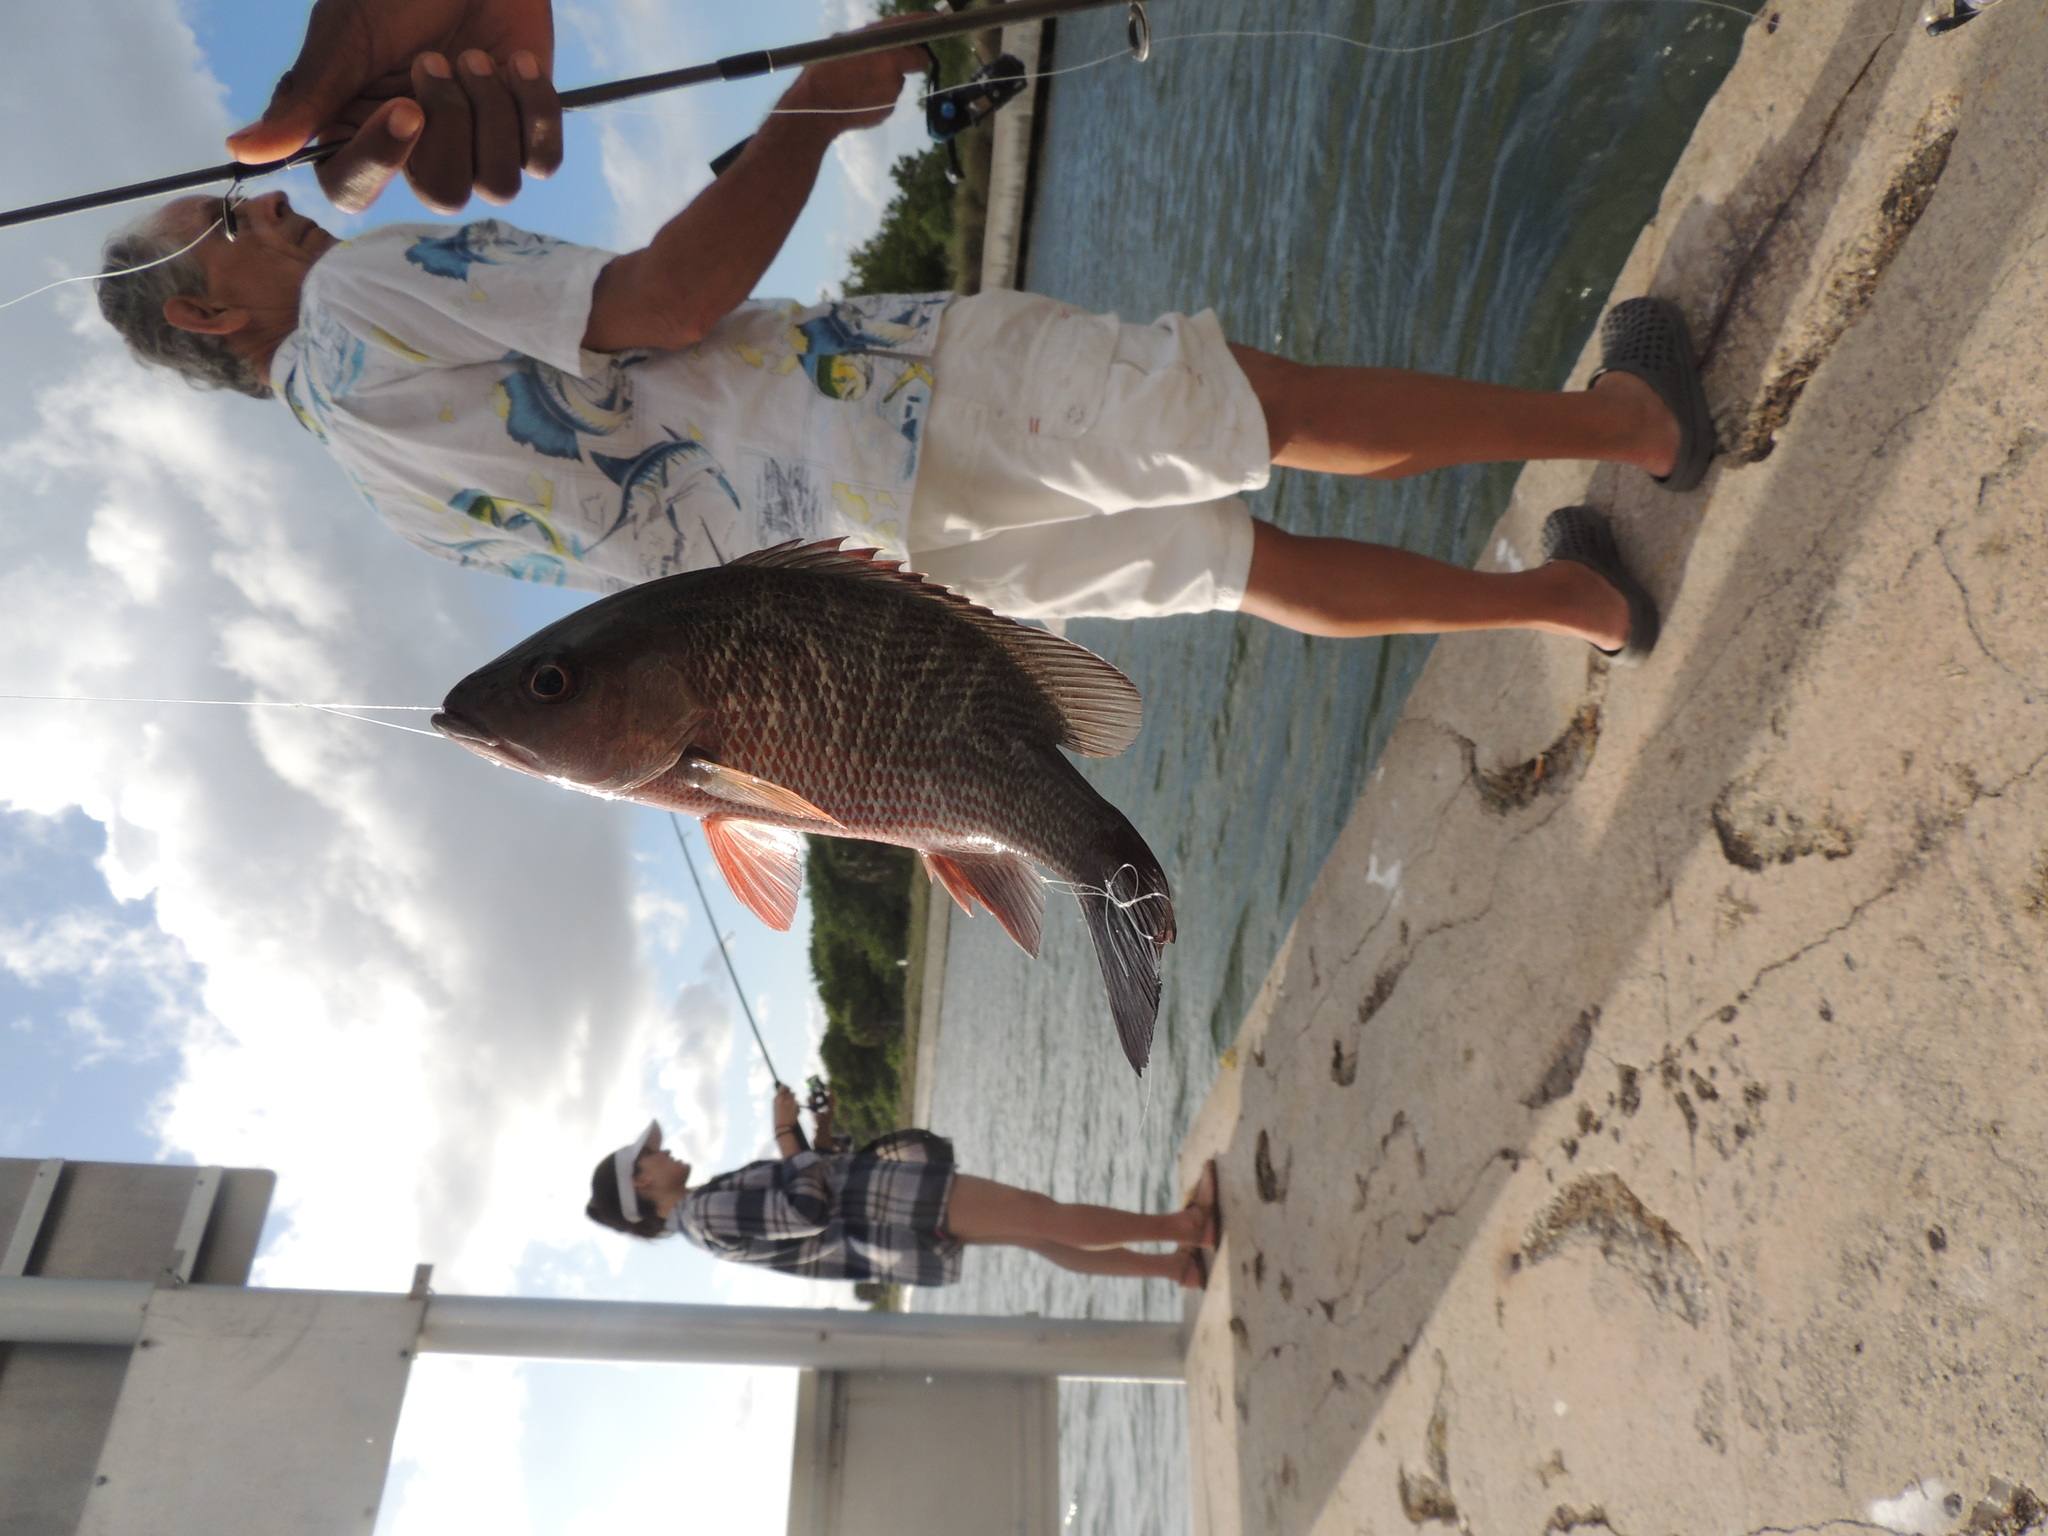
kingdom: Animalia
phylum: Chordata
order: Perciformes
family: Lutjanidae
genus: Lutjanus
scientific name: Lutjanus griseus
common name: Gray snapper
